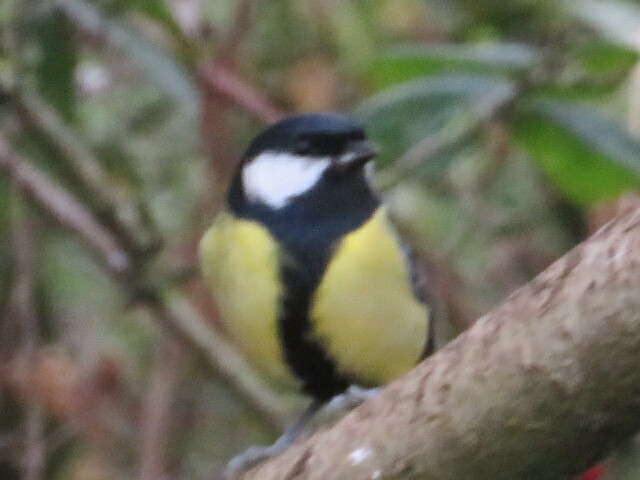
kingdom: Animalia
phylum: Chordata
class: Aves
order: Passeriformes
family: Paridae
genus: Parus
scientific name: Parus major
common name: Great tit
